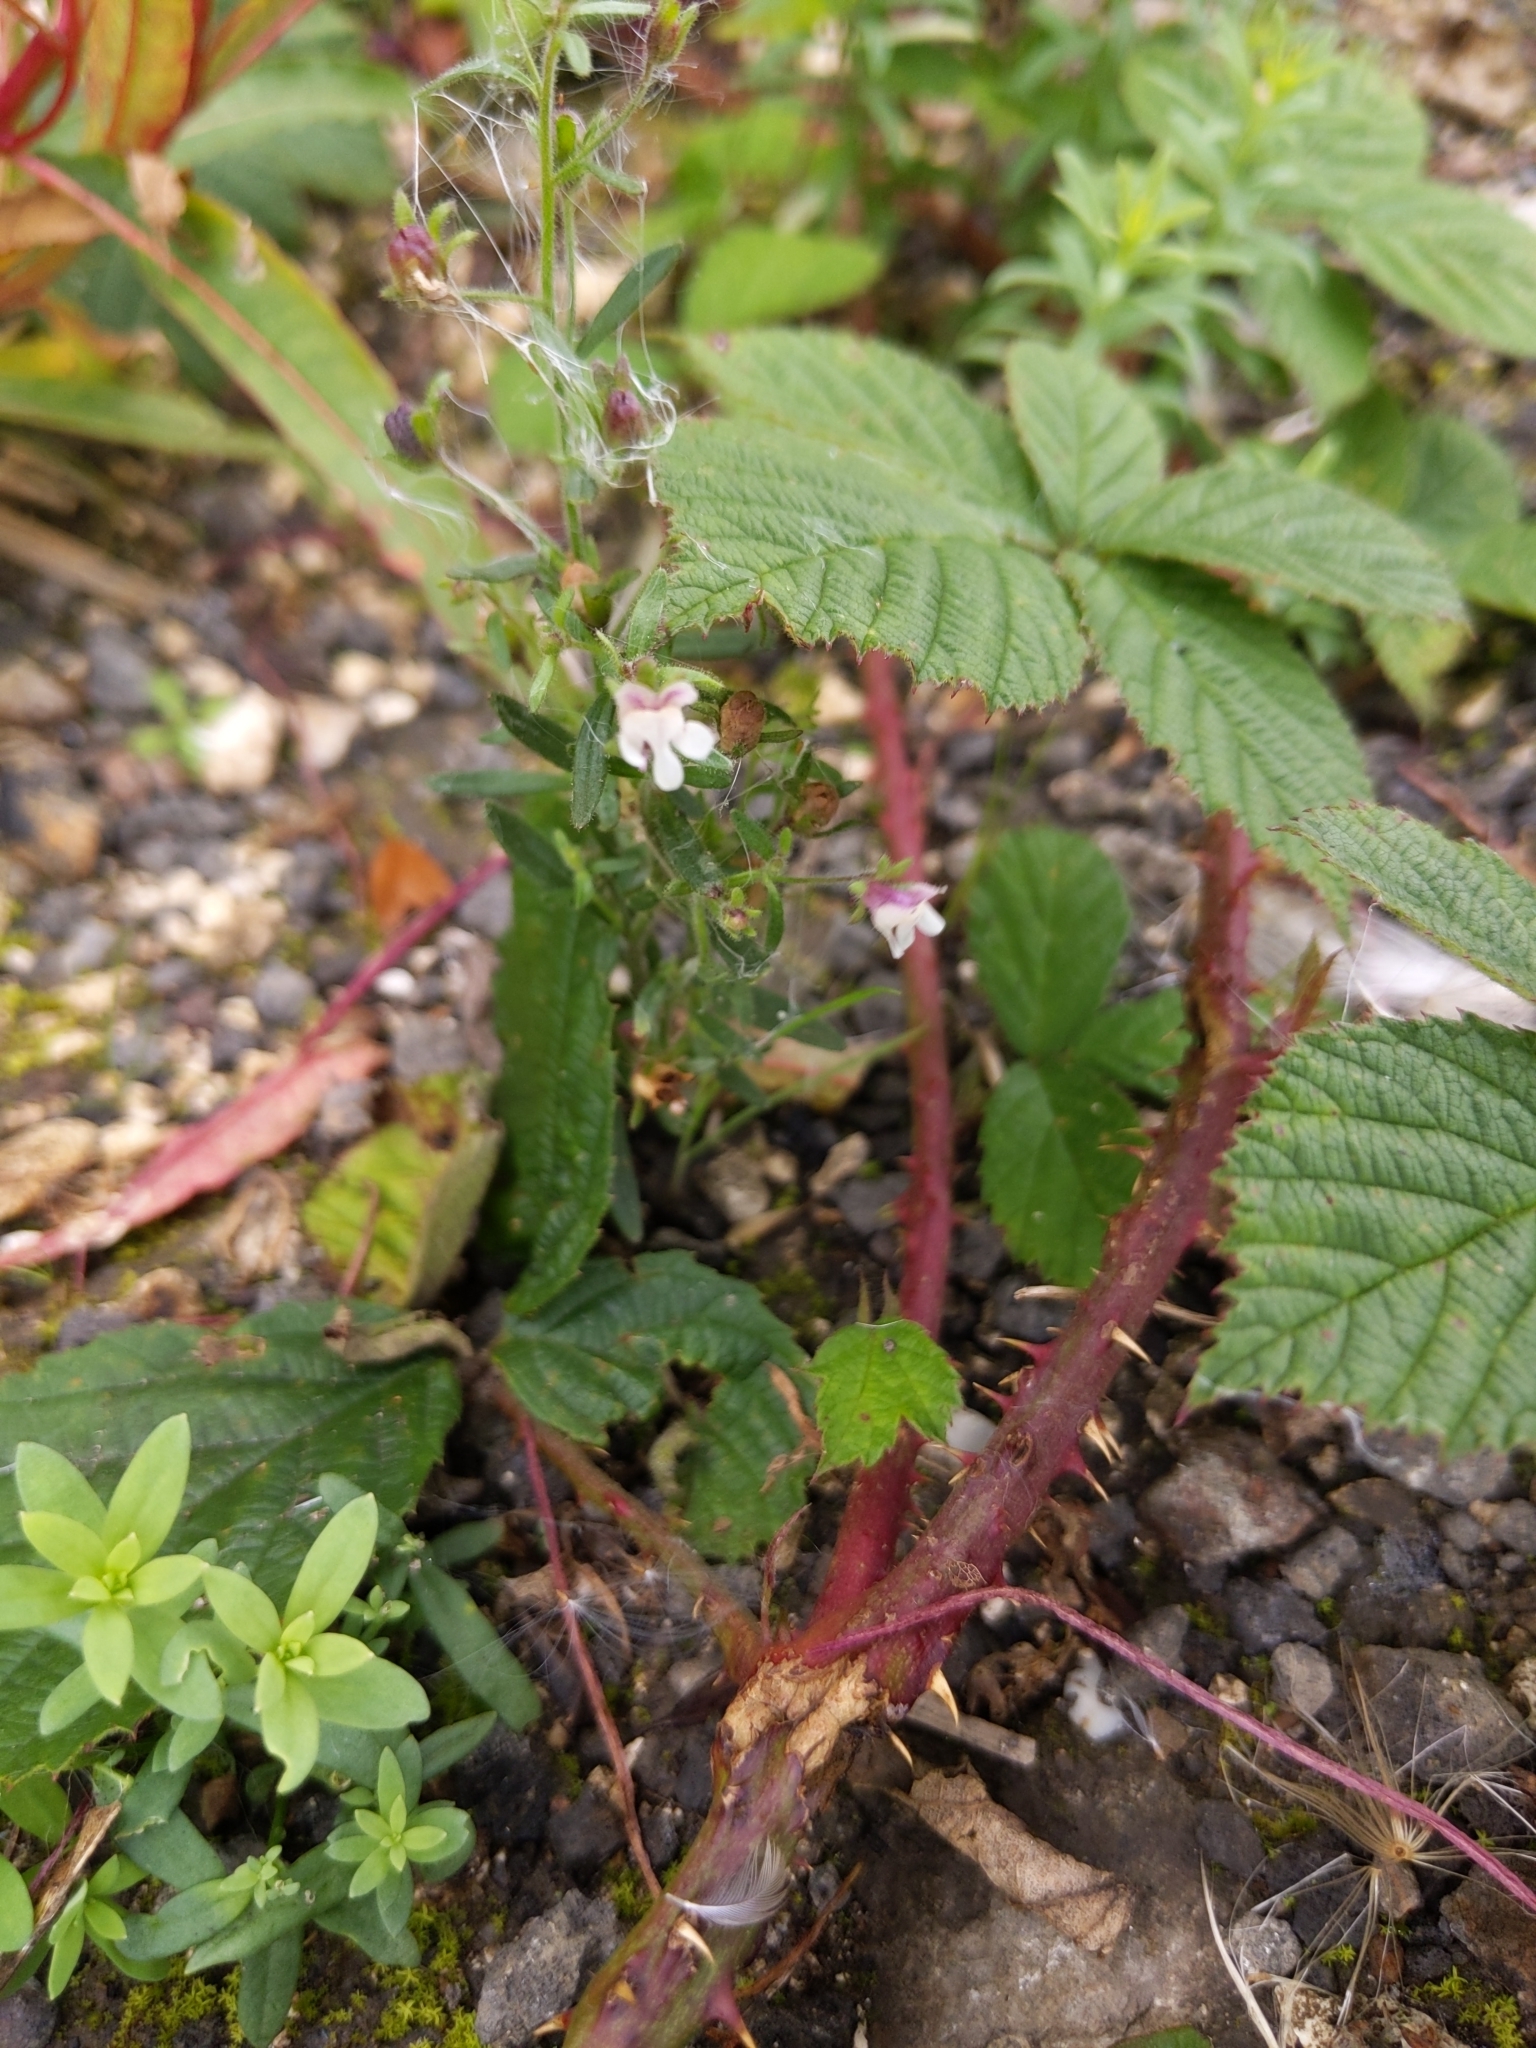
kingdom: Plantae
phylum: Tracheophyta
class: Magnoliopsida
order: Lamiales
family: Plantaginaceae
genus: Chaenorhinum
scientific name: Chaenorhinum minus
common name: Dwarf snapdragon
